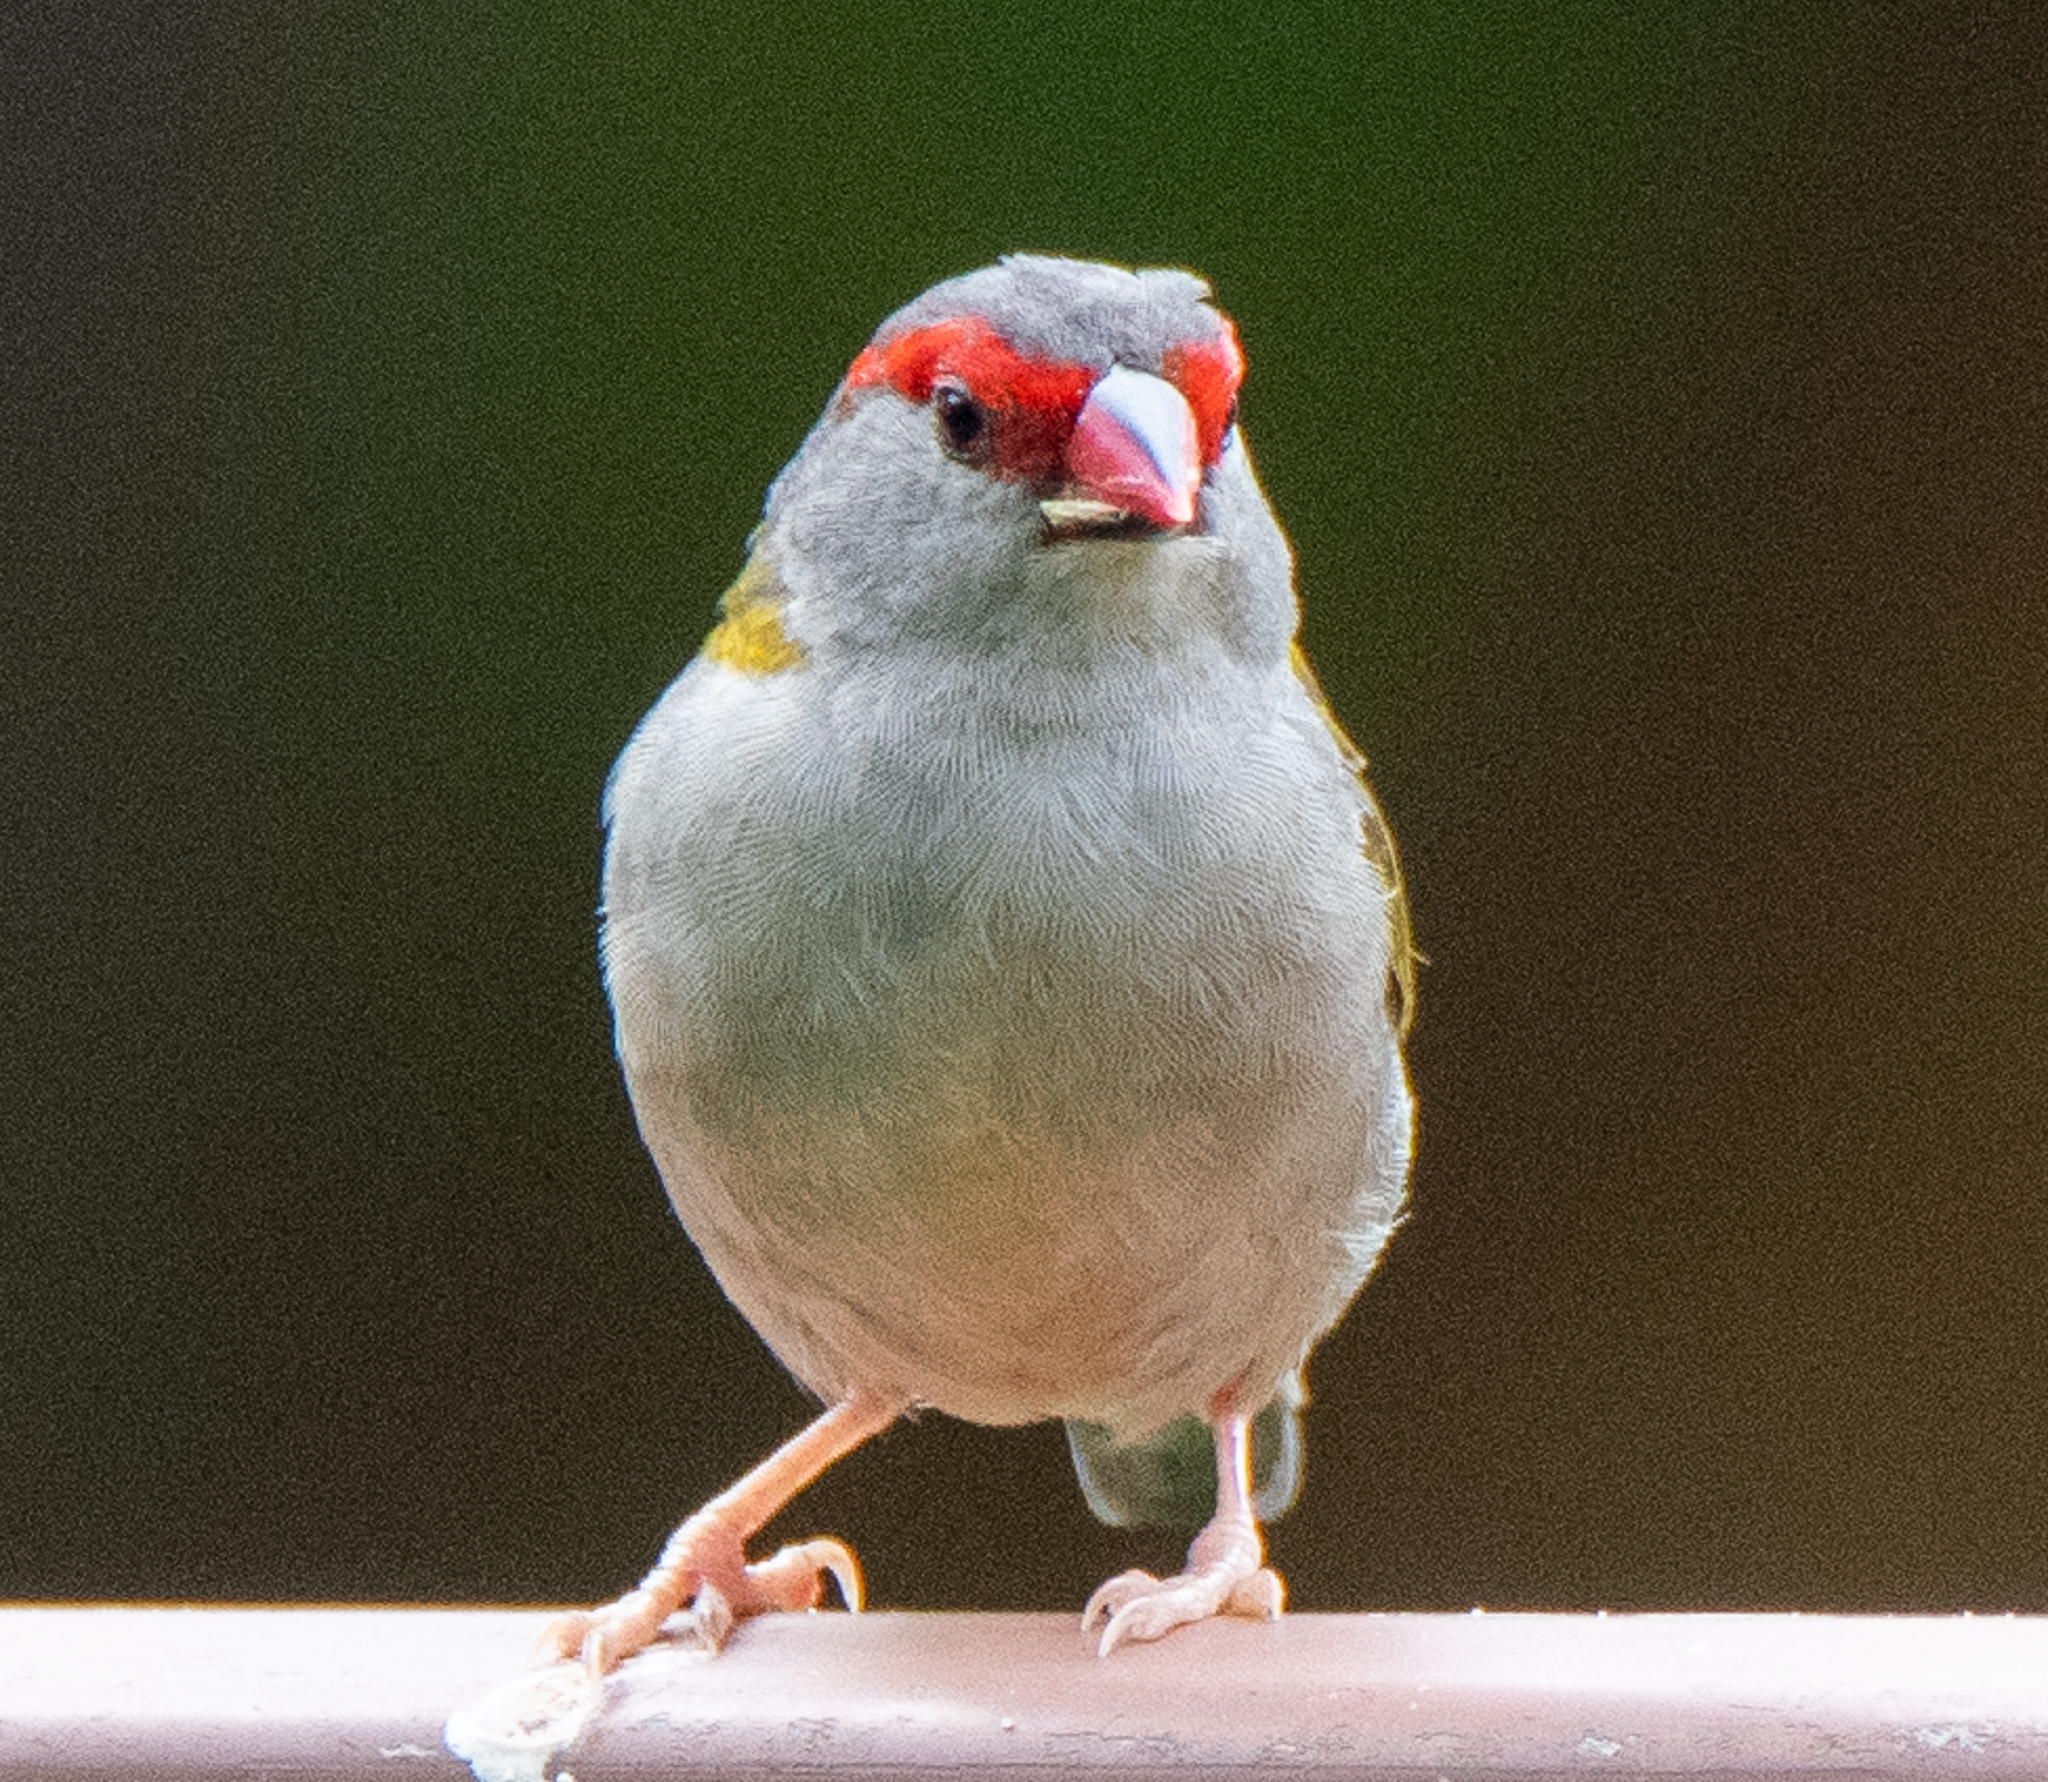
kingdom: Animalia
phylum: Chordata
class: Aves
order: Passeriformes
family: Estrildidae
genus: Neochmia
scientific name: Neochmia temporalis
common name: Red-browed finch
